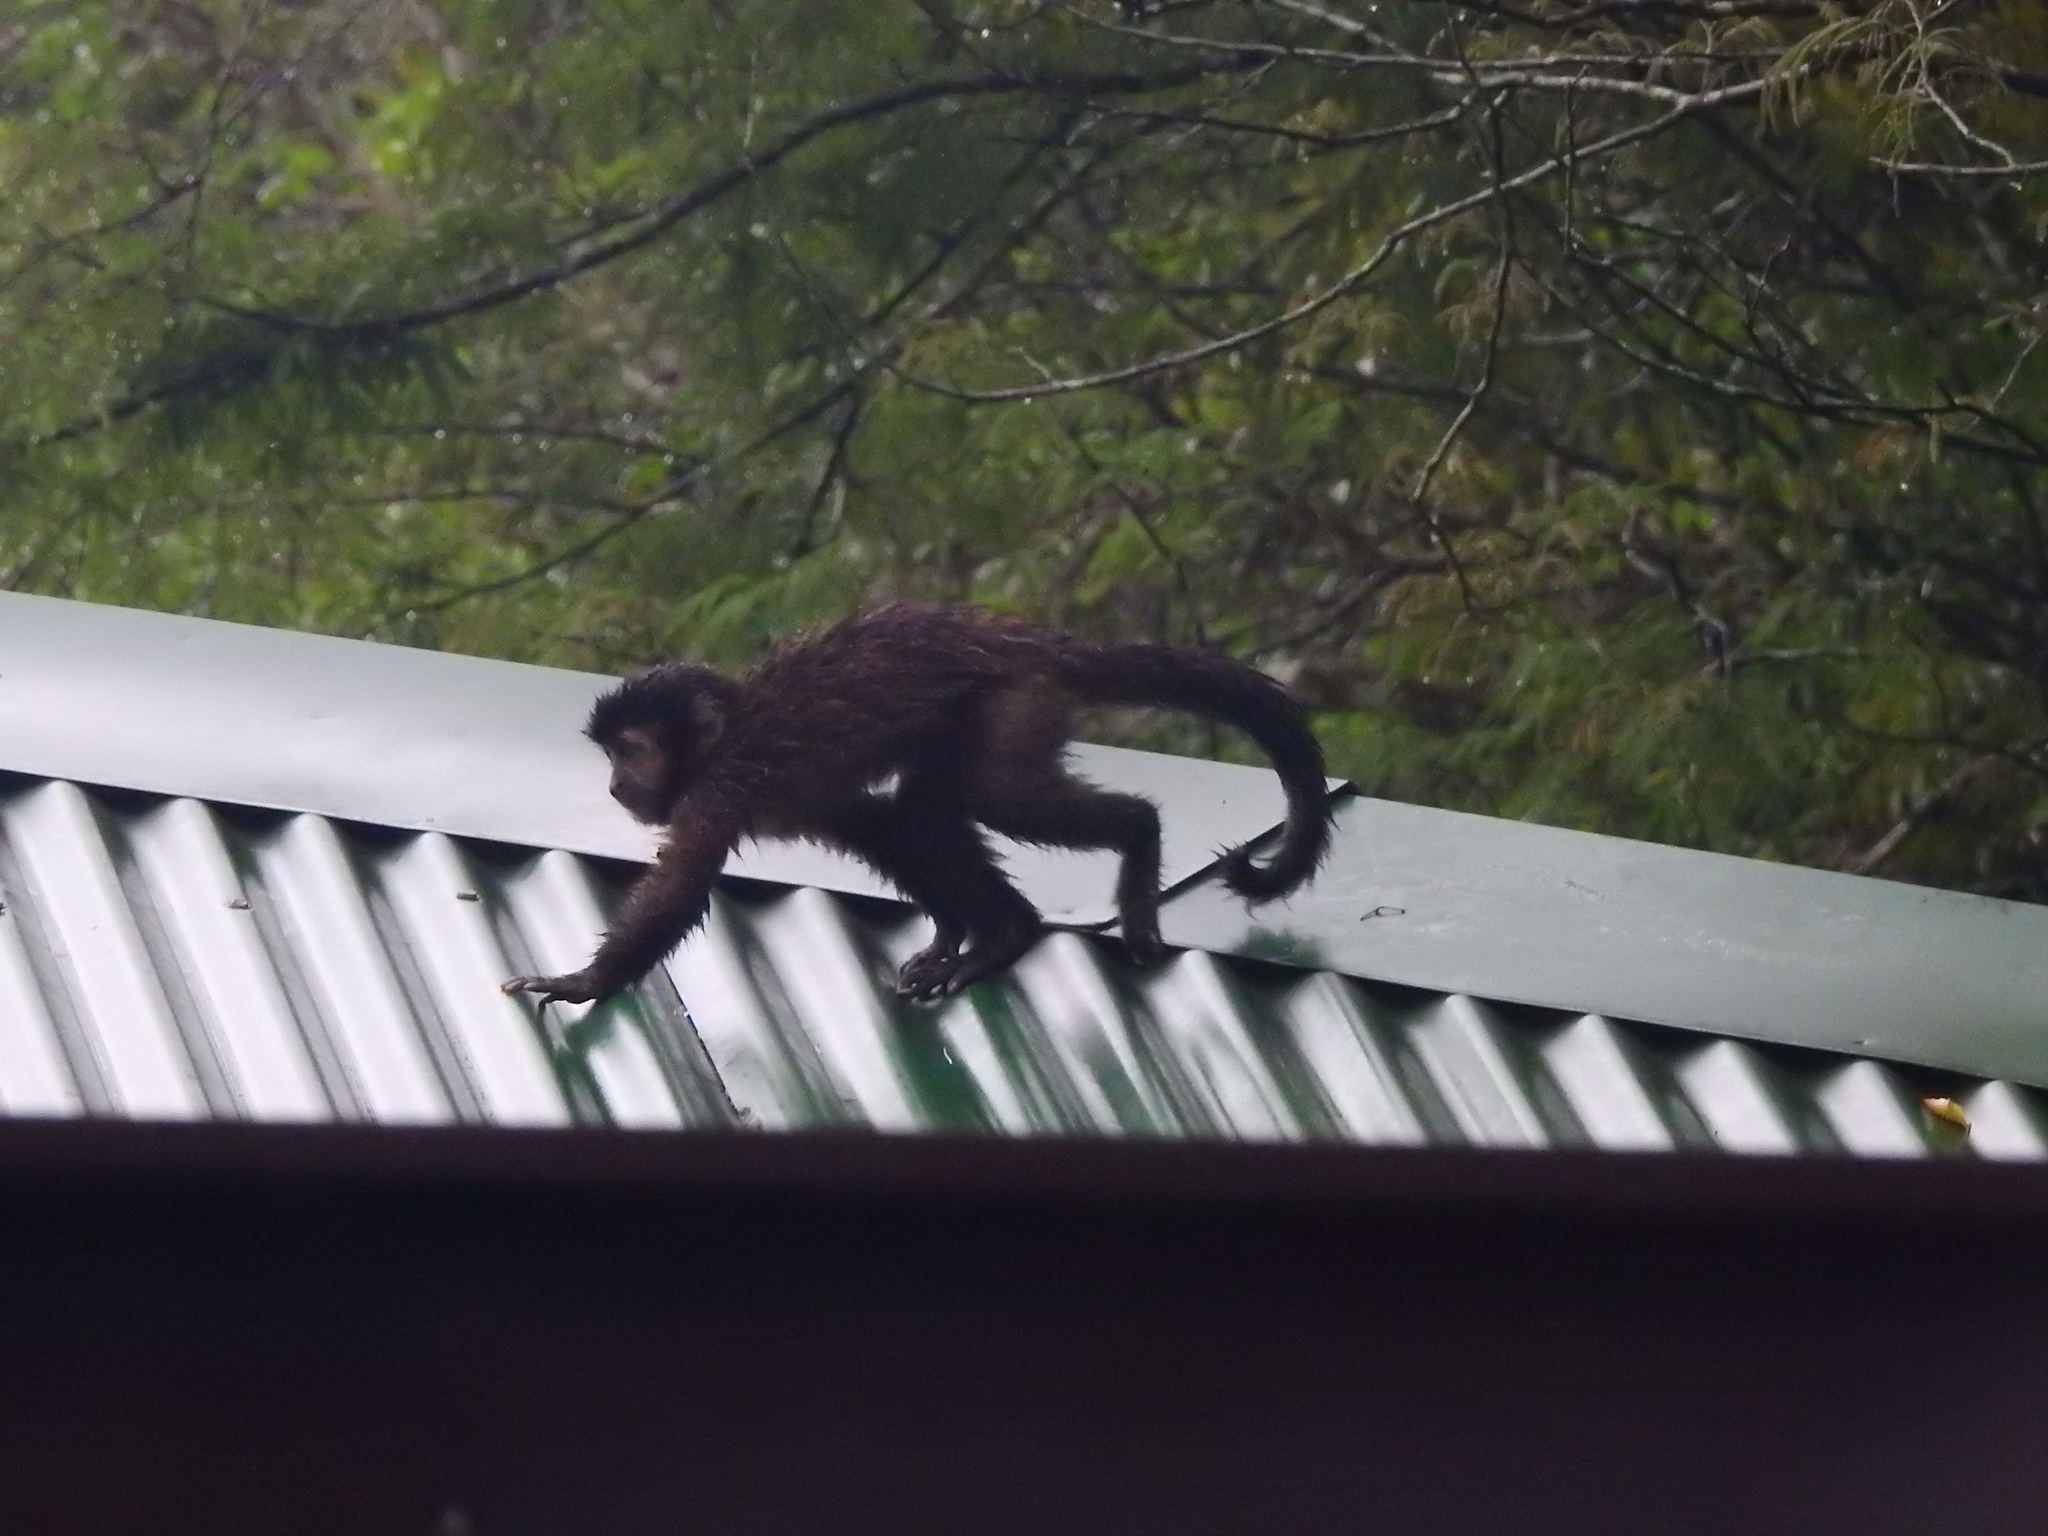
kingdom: Animalia
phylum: Chordata
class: Mammalia
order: Primates
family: Cebidae
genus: Sapajus
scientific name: Sapajus nigritus
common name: Black capuchin
